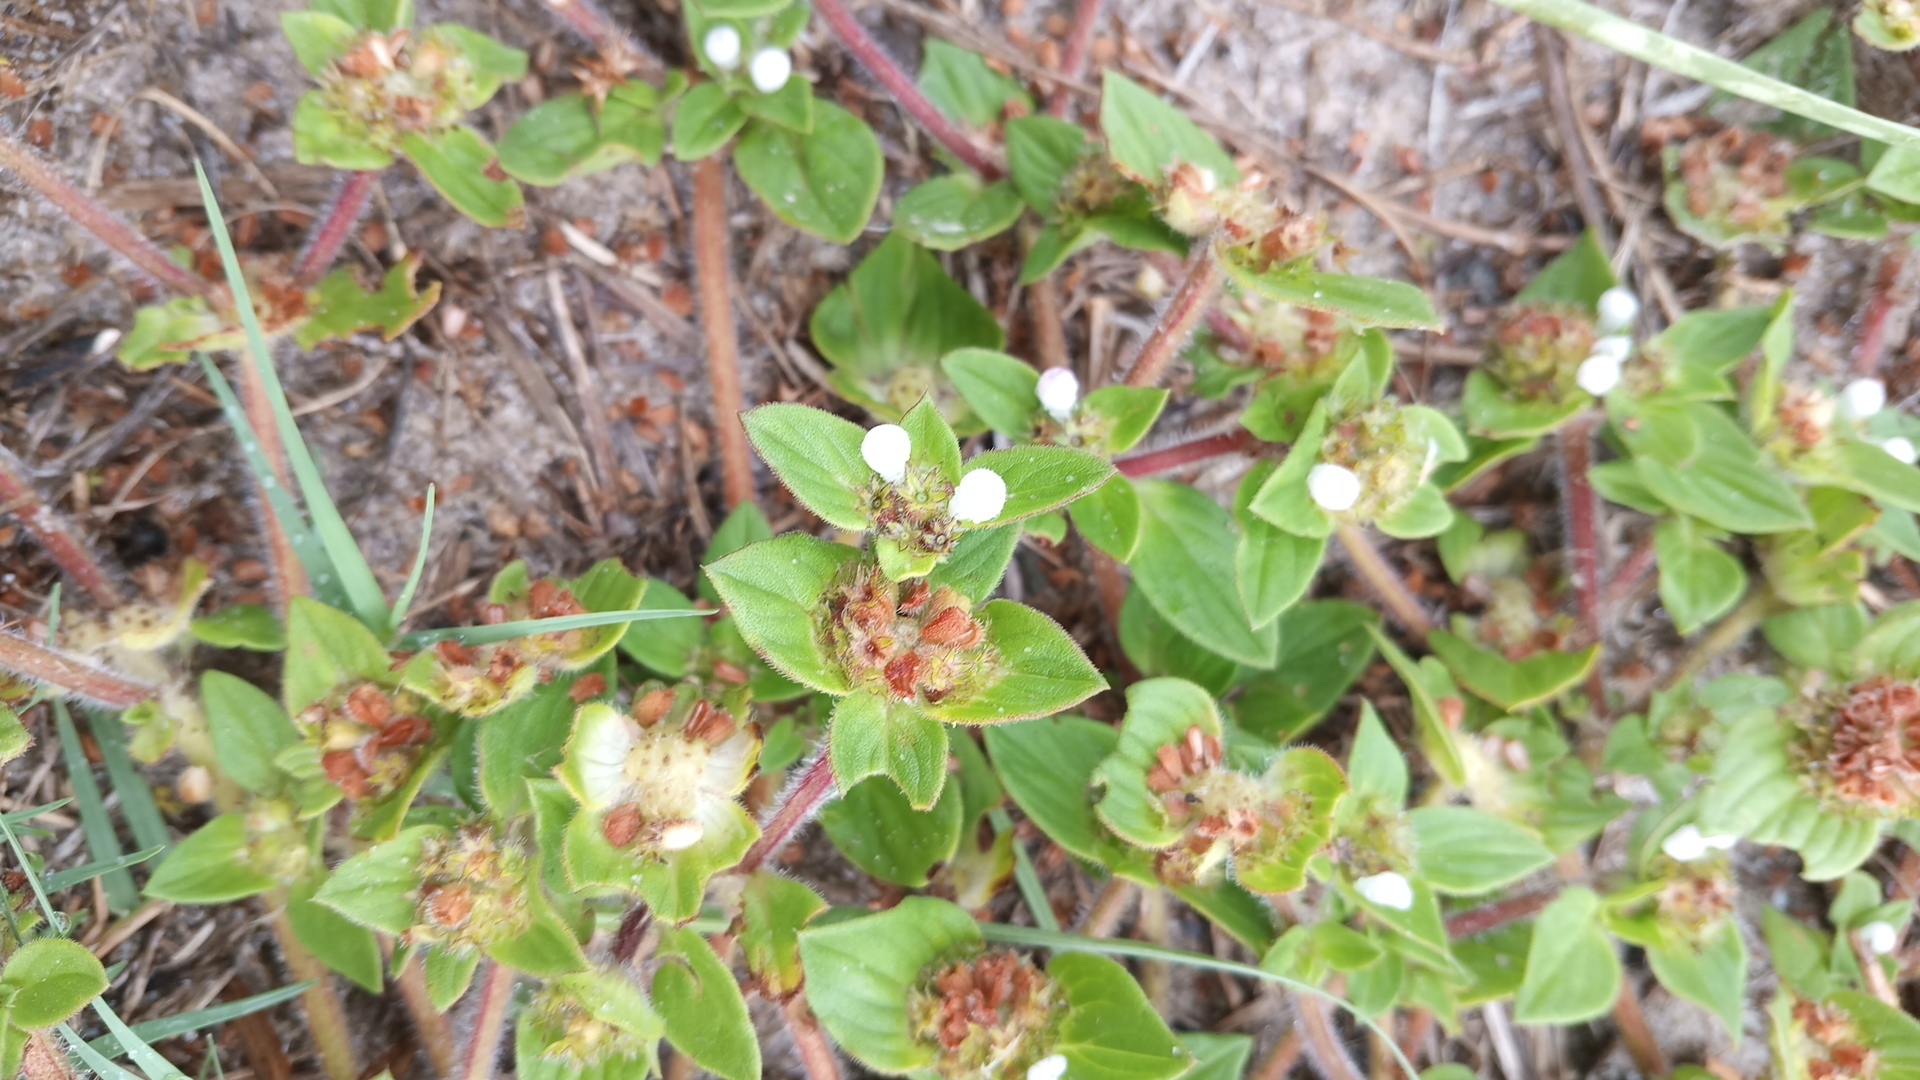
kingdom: Plantae
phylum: Tracheophyta
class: Magnoliopsida
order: Gentianales
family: Rubiaceae
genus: Richardia
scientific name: Richardia brasiliensis
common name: Tropical mexican clover
